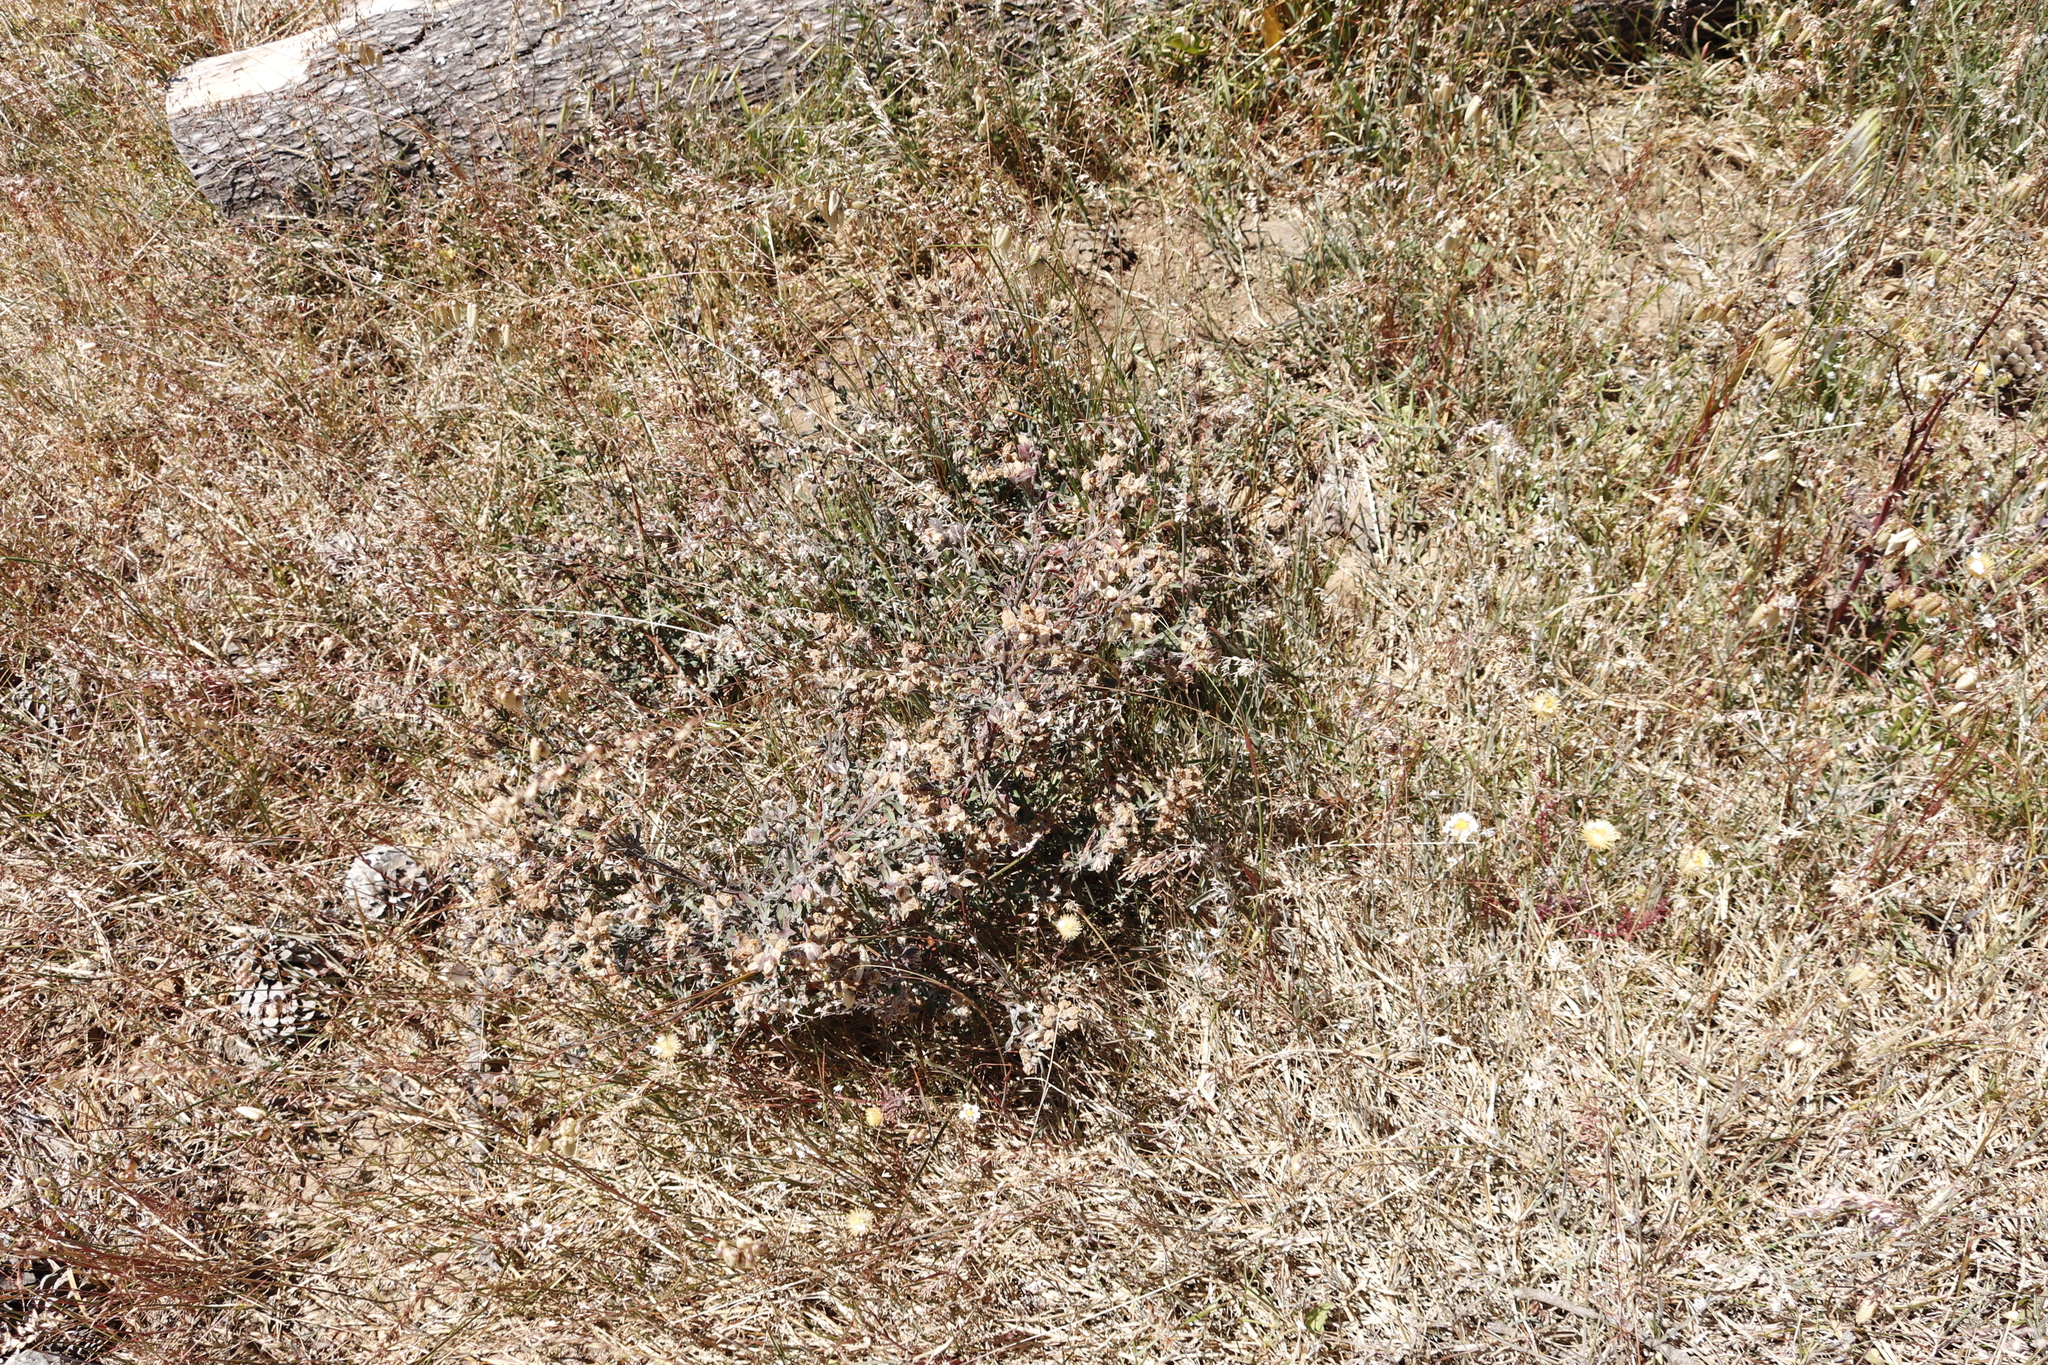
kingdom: Plantae
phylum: Tracheophyta
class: Magnoliopsida
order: Malvales
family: Malvaceae
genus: Hermannia
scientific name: Hermannia hyssopifolia
